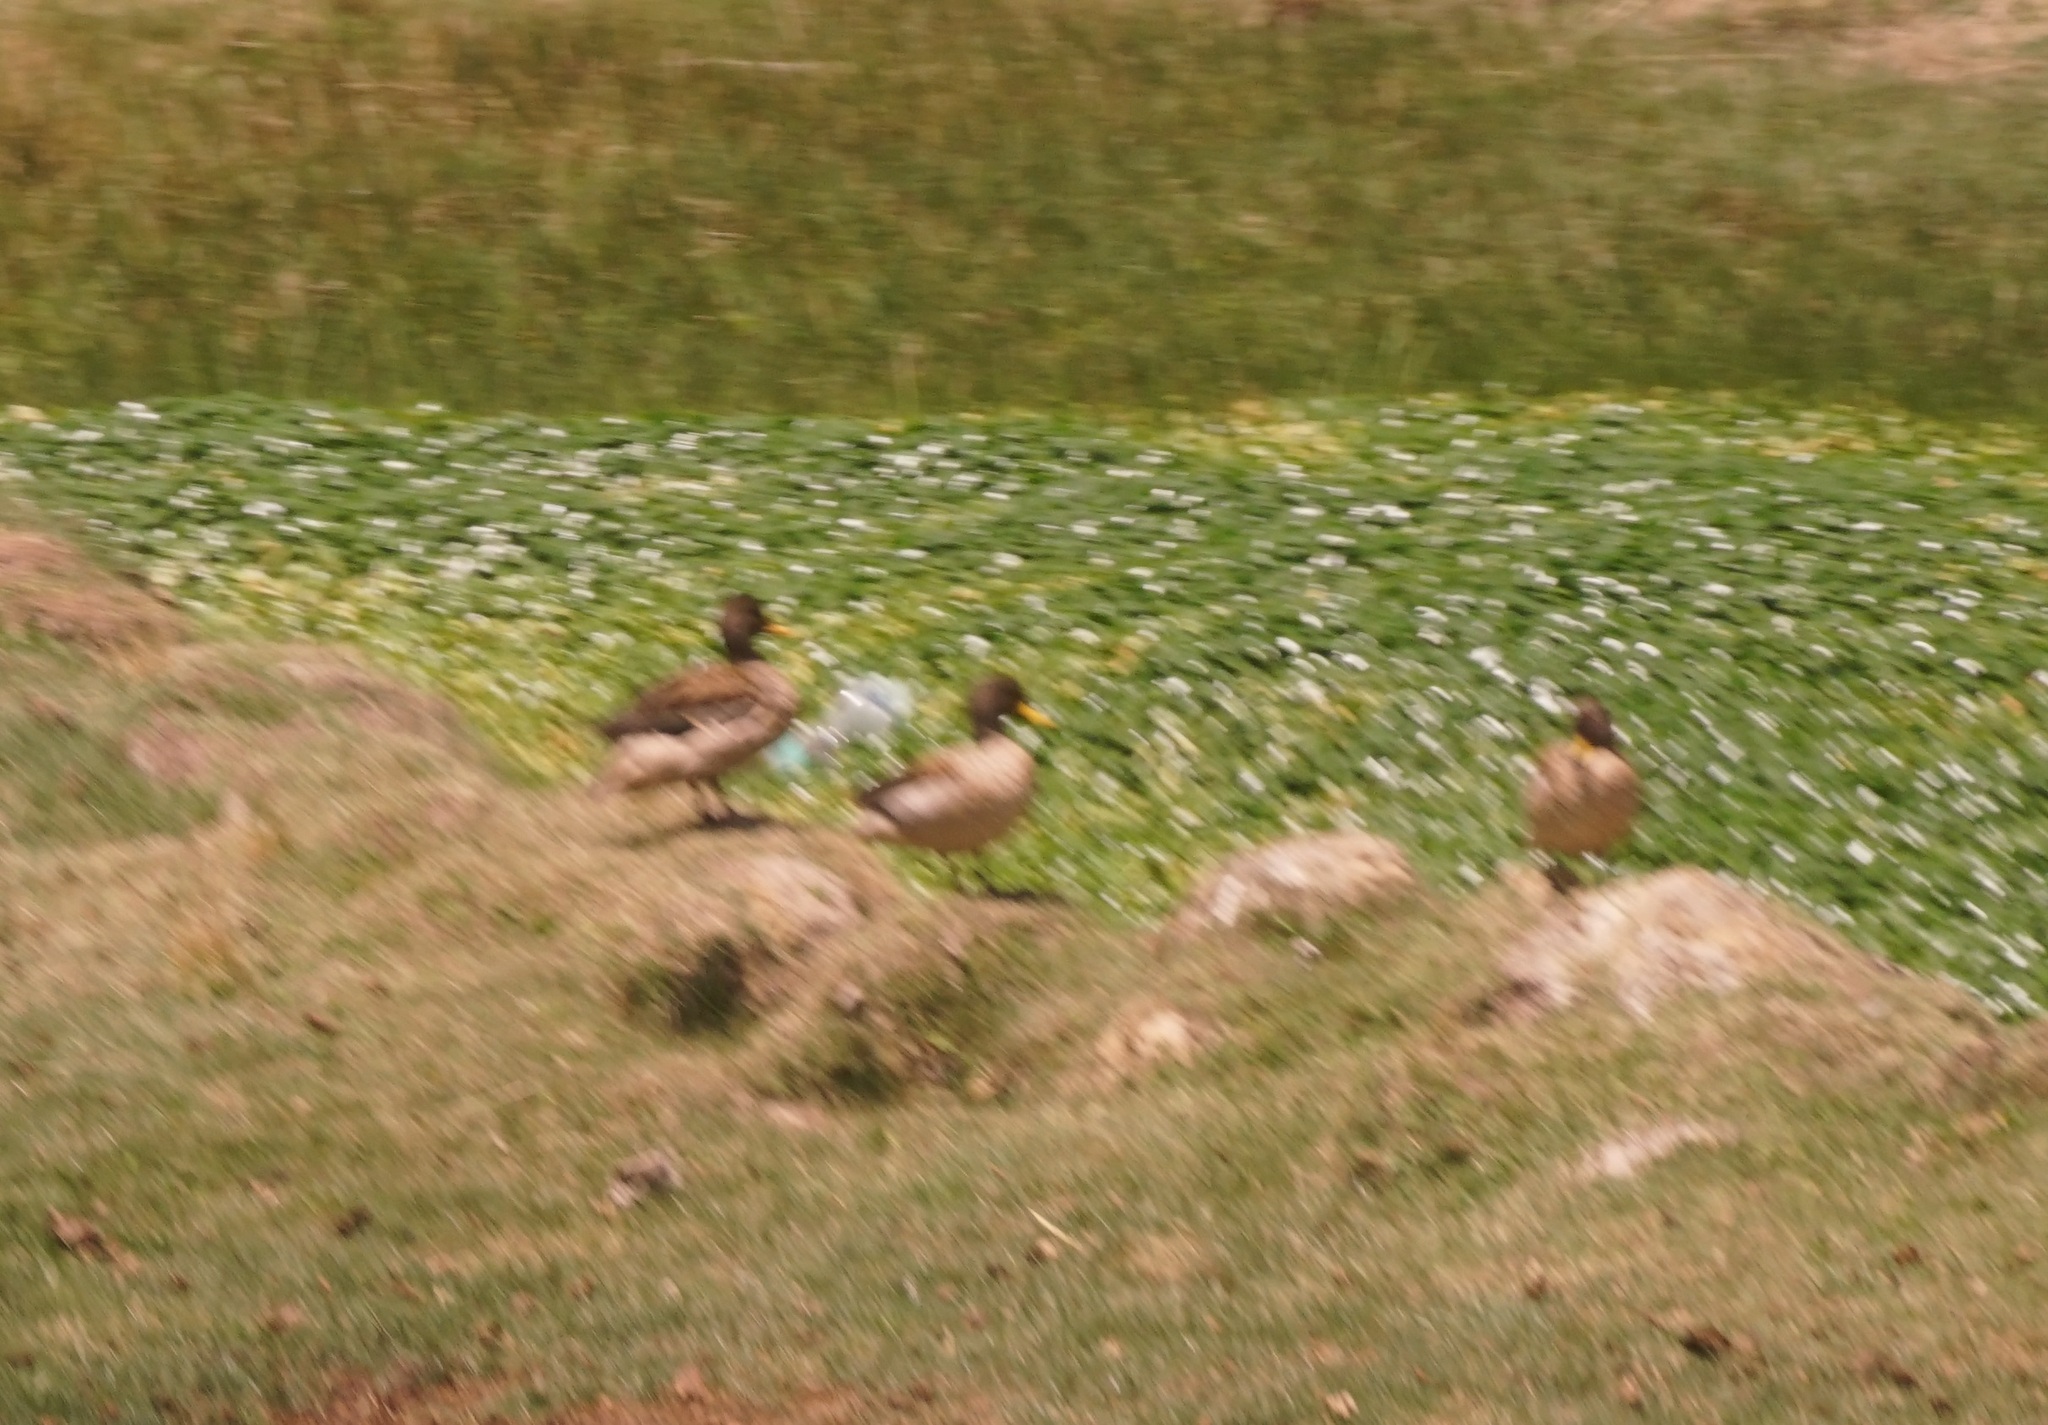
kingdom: Animalia
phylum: Chordata
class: Aves
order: Anseriformes
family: Anatidae
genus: Anas
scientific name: Anas flavirostris
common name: Yellow-billed teal
